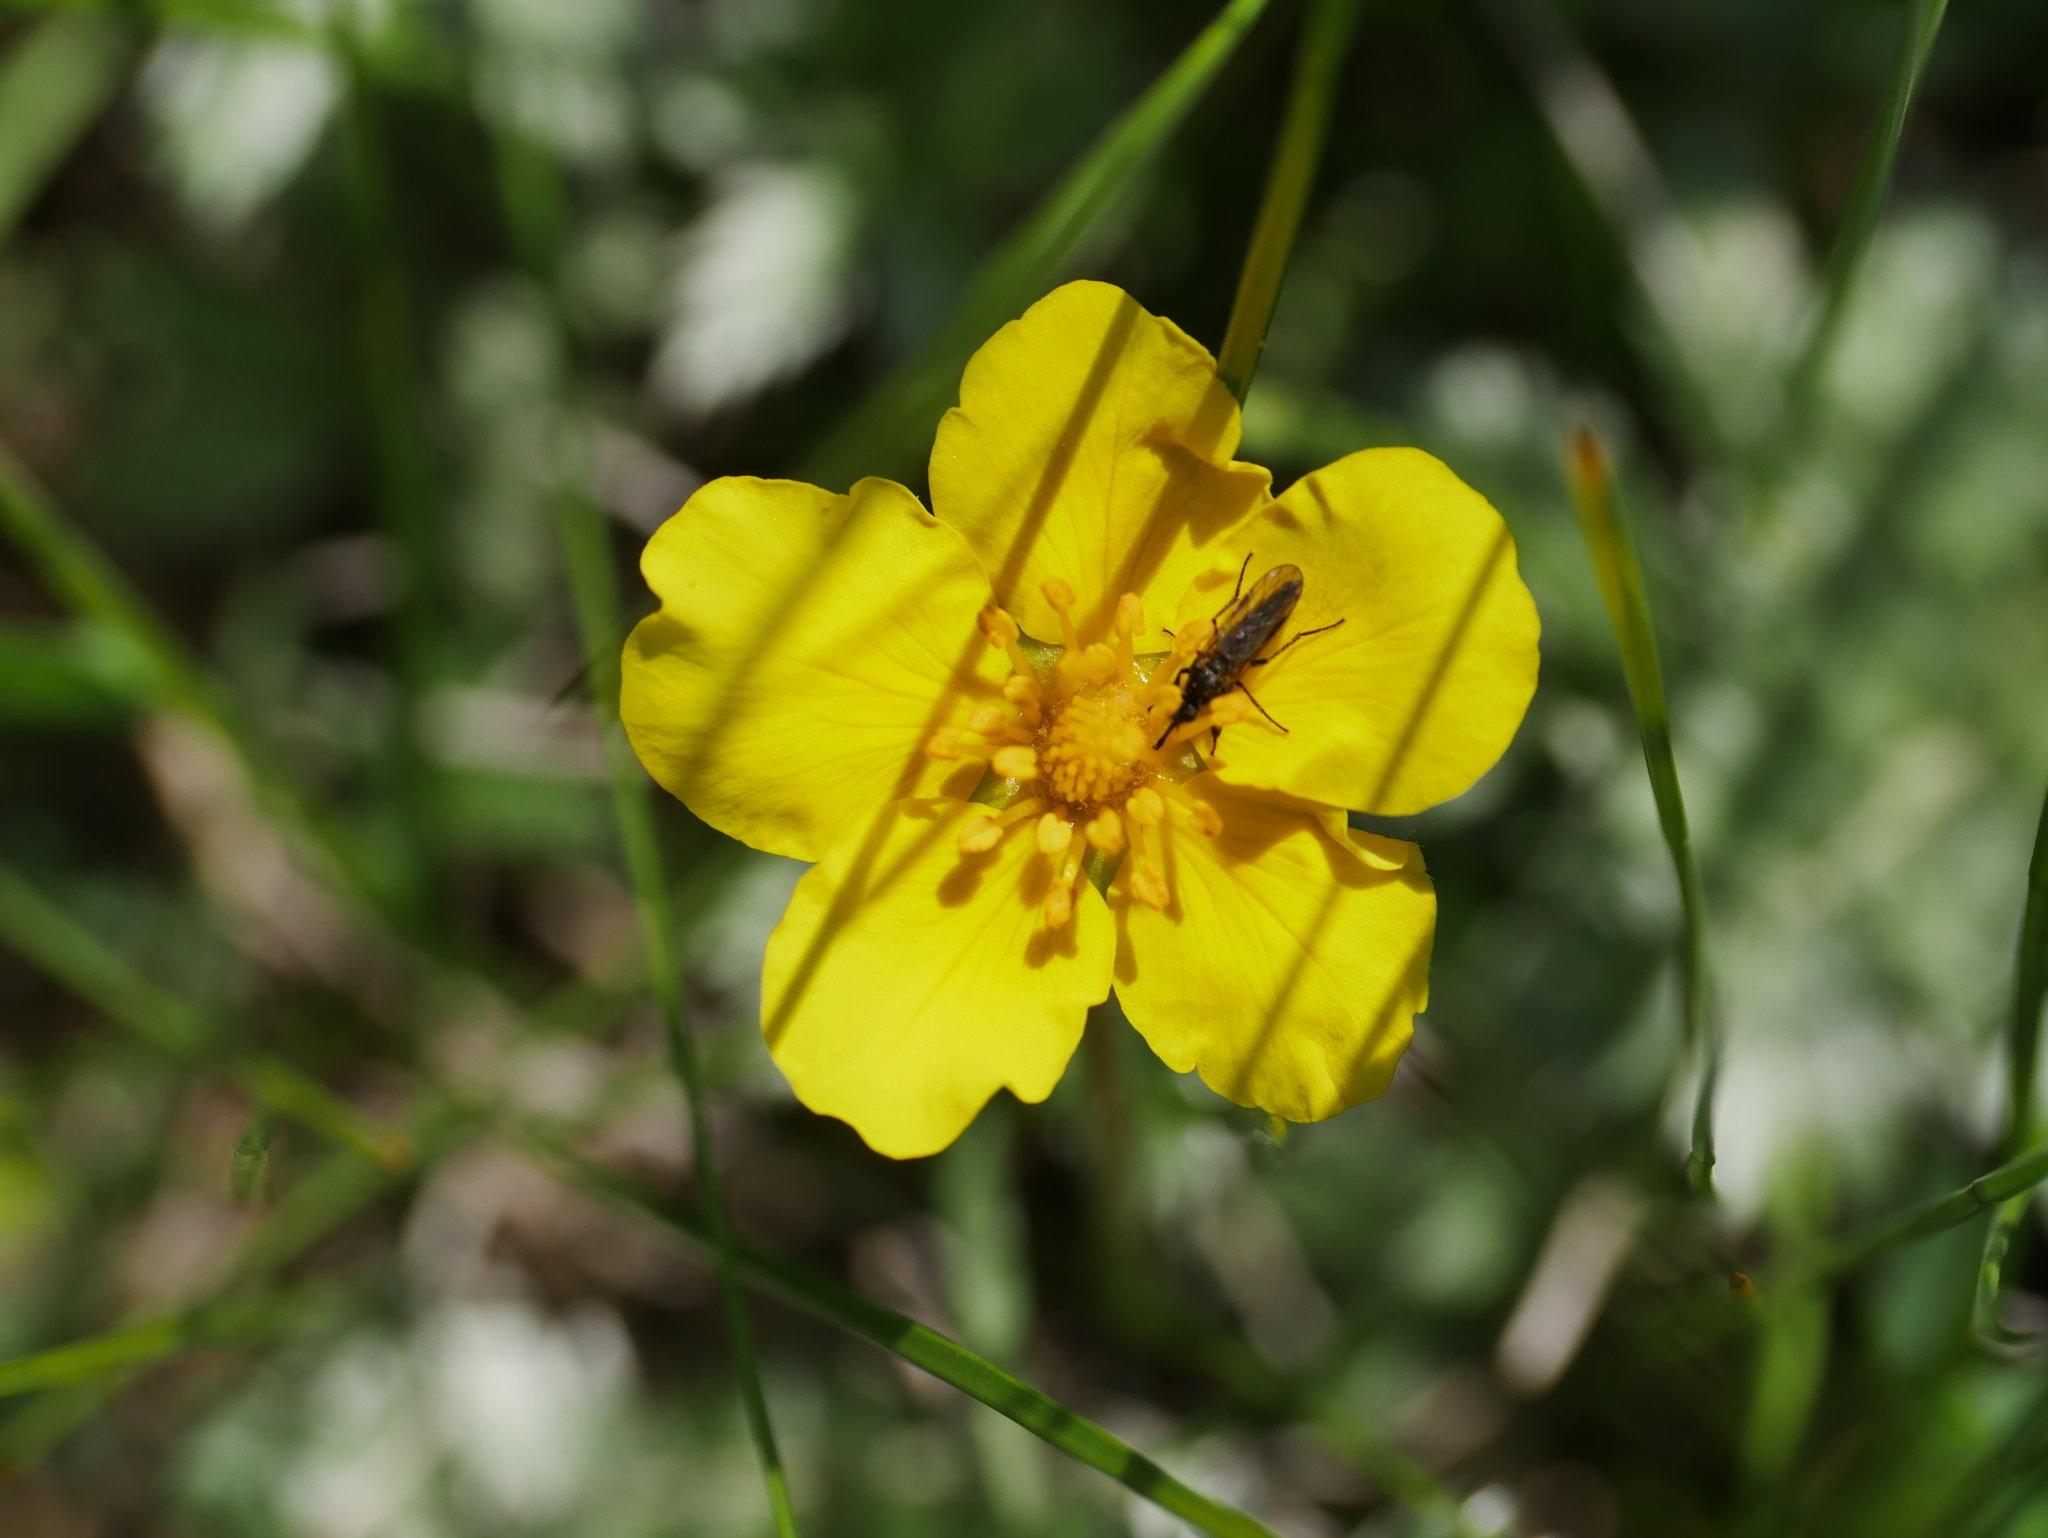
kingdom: Plantae
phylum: Tracheophyta
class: Magnoliopsida
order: Rosales
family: Rosaceae
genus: Argentina
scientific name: Argentina anserina
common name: Common silverweed
